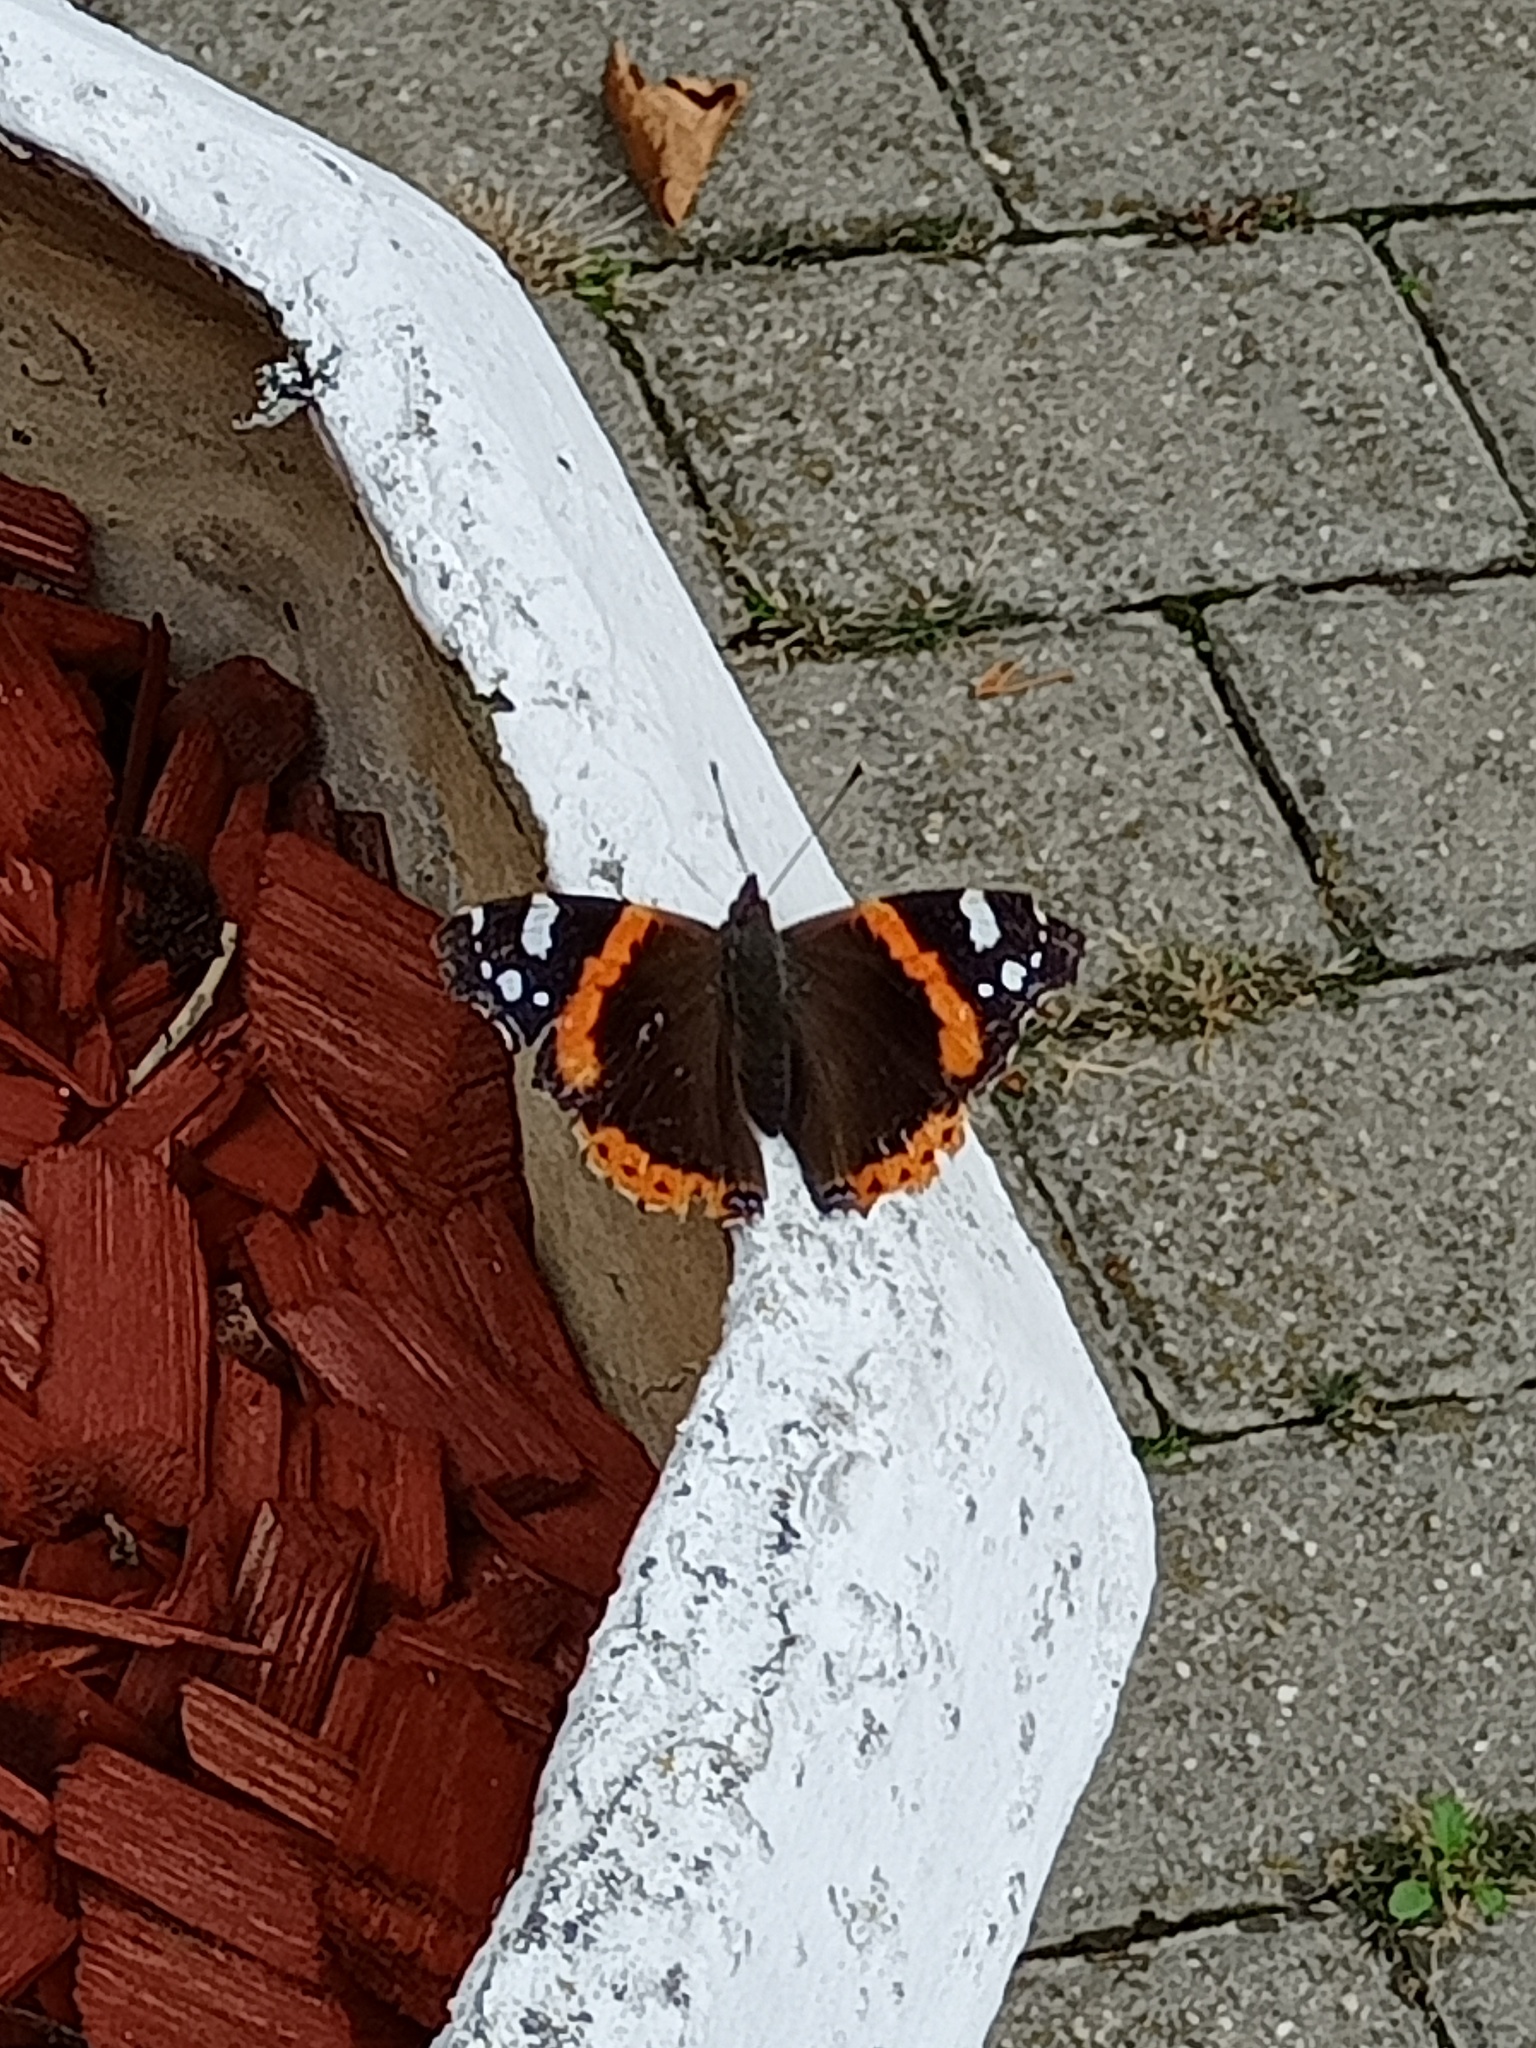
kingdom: Animalia
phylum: Arthropoda
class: Insecta
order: Lepidoptera
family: Nymphalidae
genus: Vanessa
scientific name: Vanessa atalanta
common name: Red admiral
